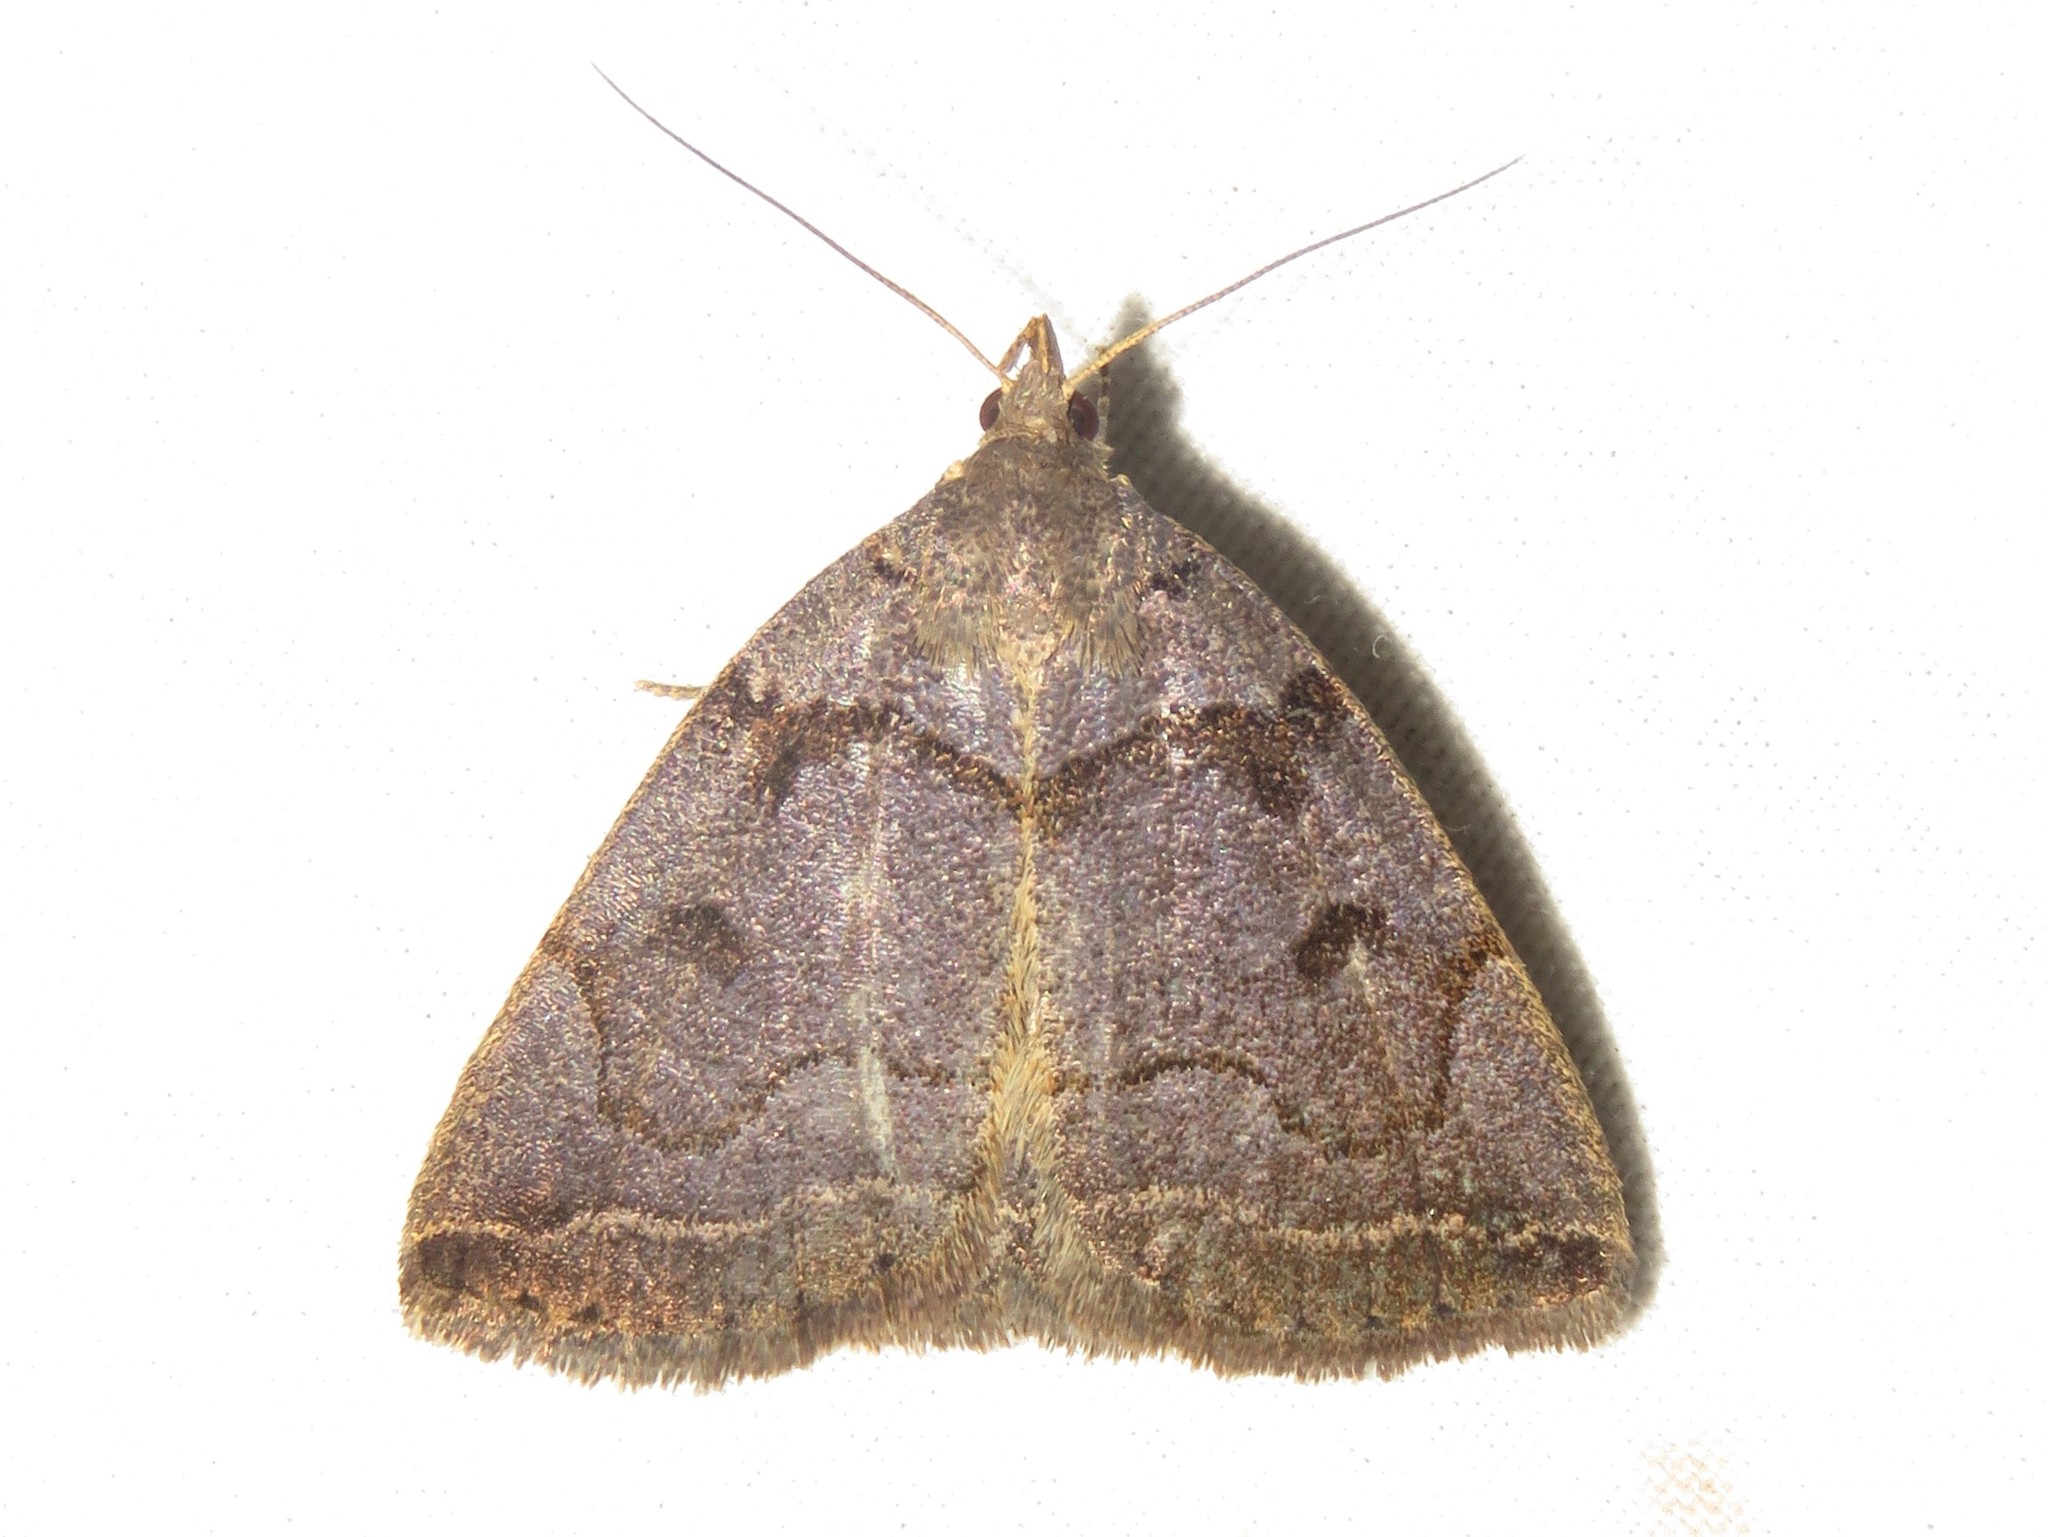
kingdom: Animalia
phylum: Arthropoda
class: Insecta
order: Lepidoptera
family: Erebidae
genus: Zanclognatha
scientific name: Zanclognatha laevigata
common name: Variable fan-foot
